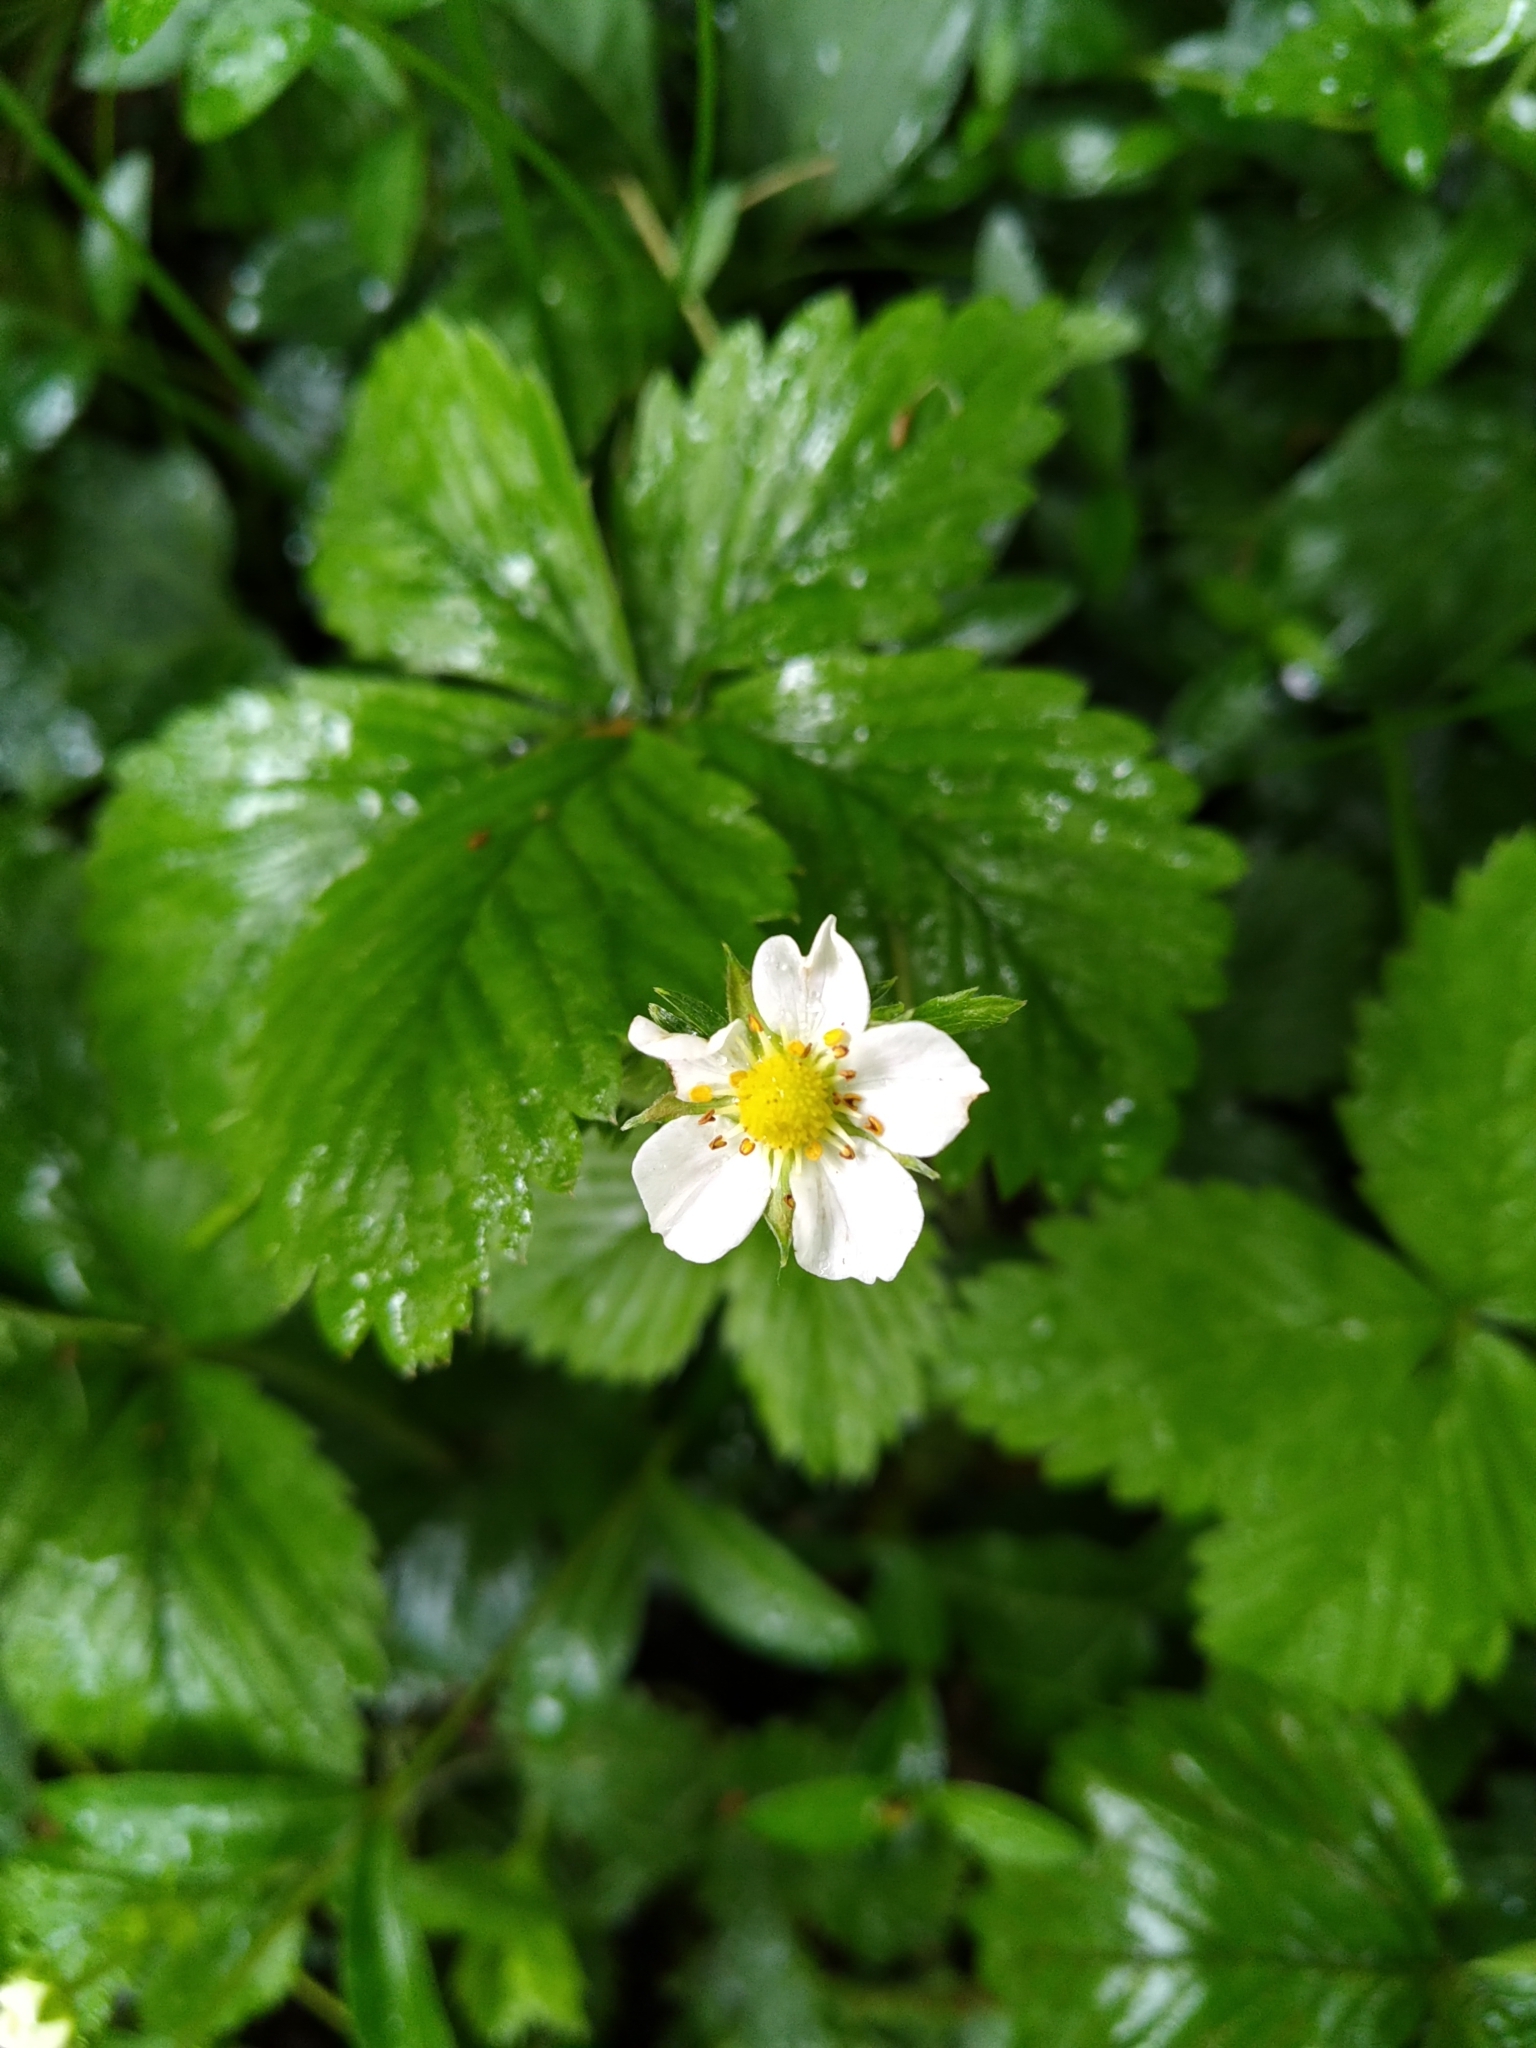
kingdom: Plantae
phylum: Tracheophyta
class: Magnoliopsida
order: Rosales
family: Rosaceae
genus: Fragaria
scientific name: Fragaria vesca
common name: Wild strawberry
